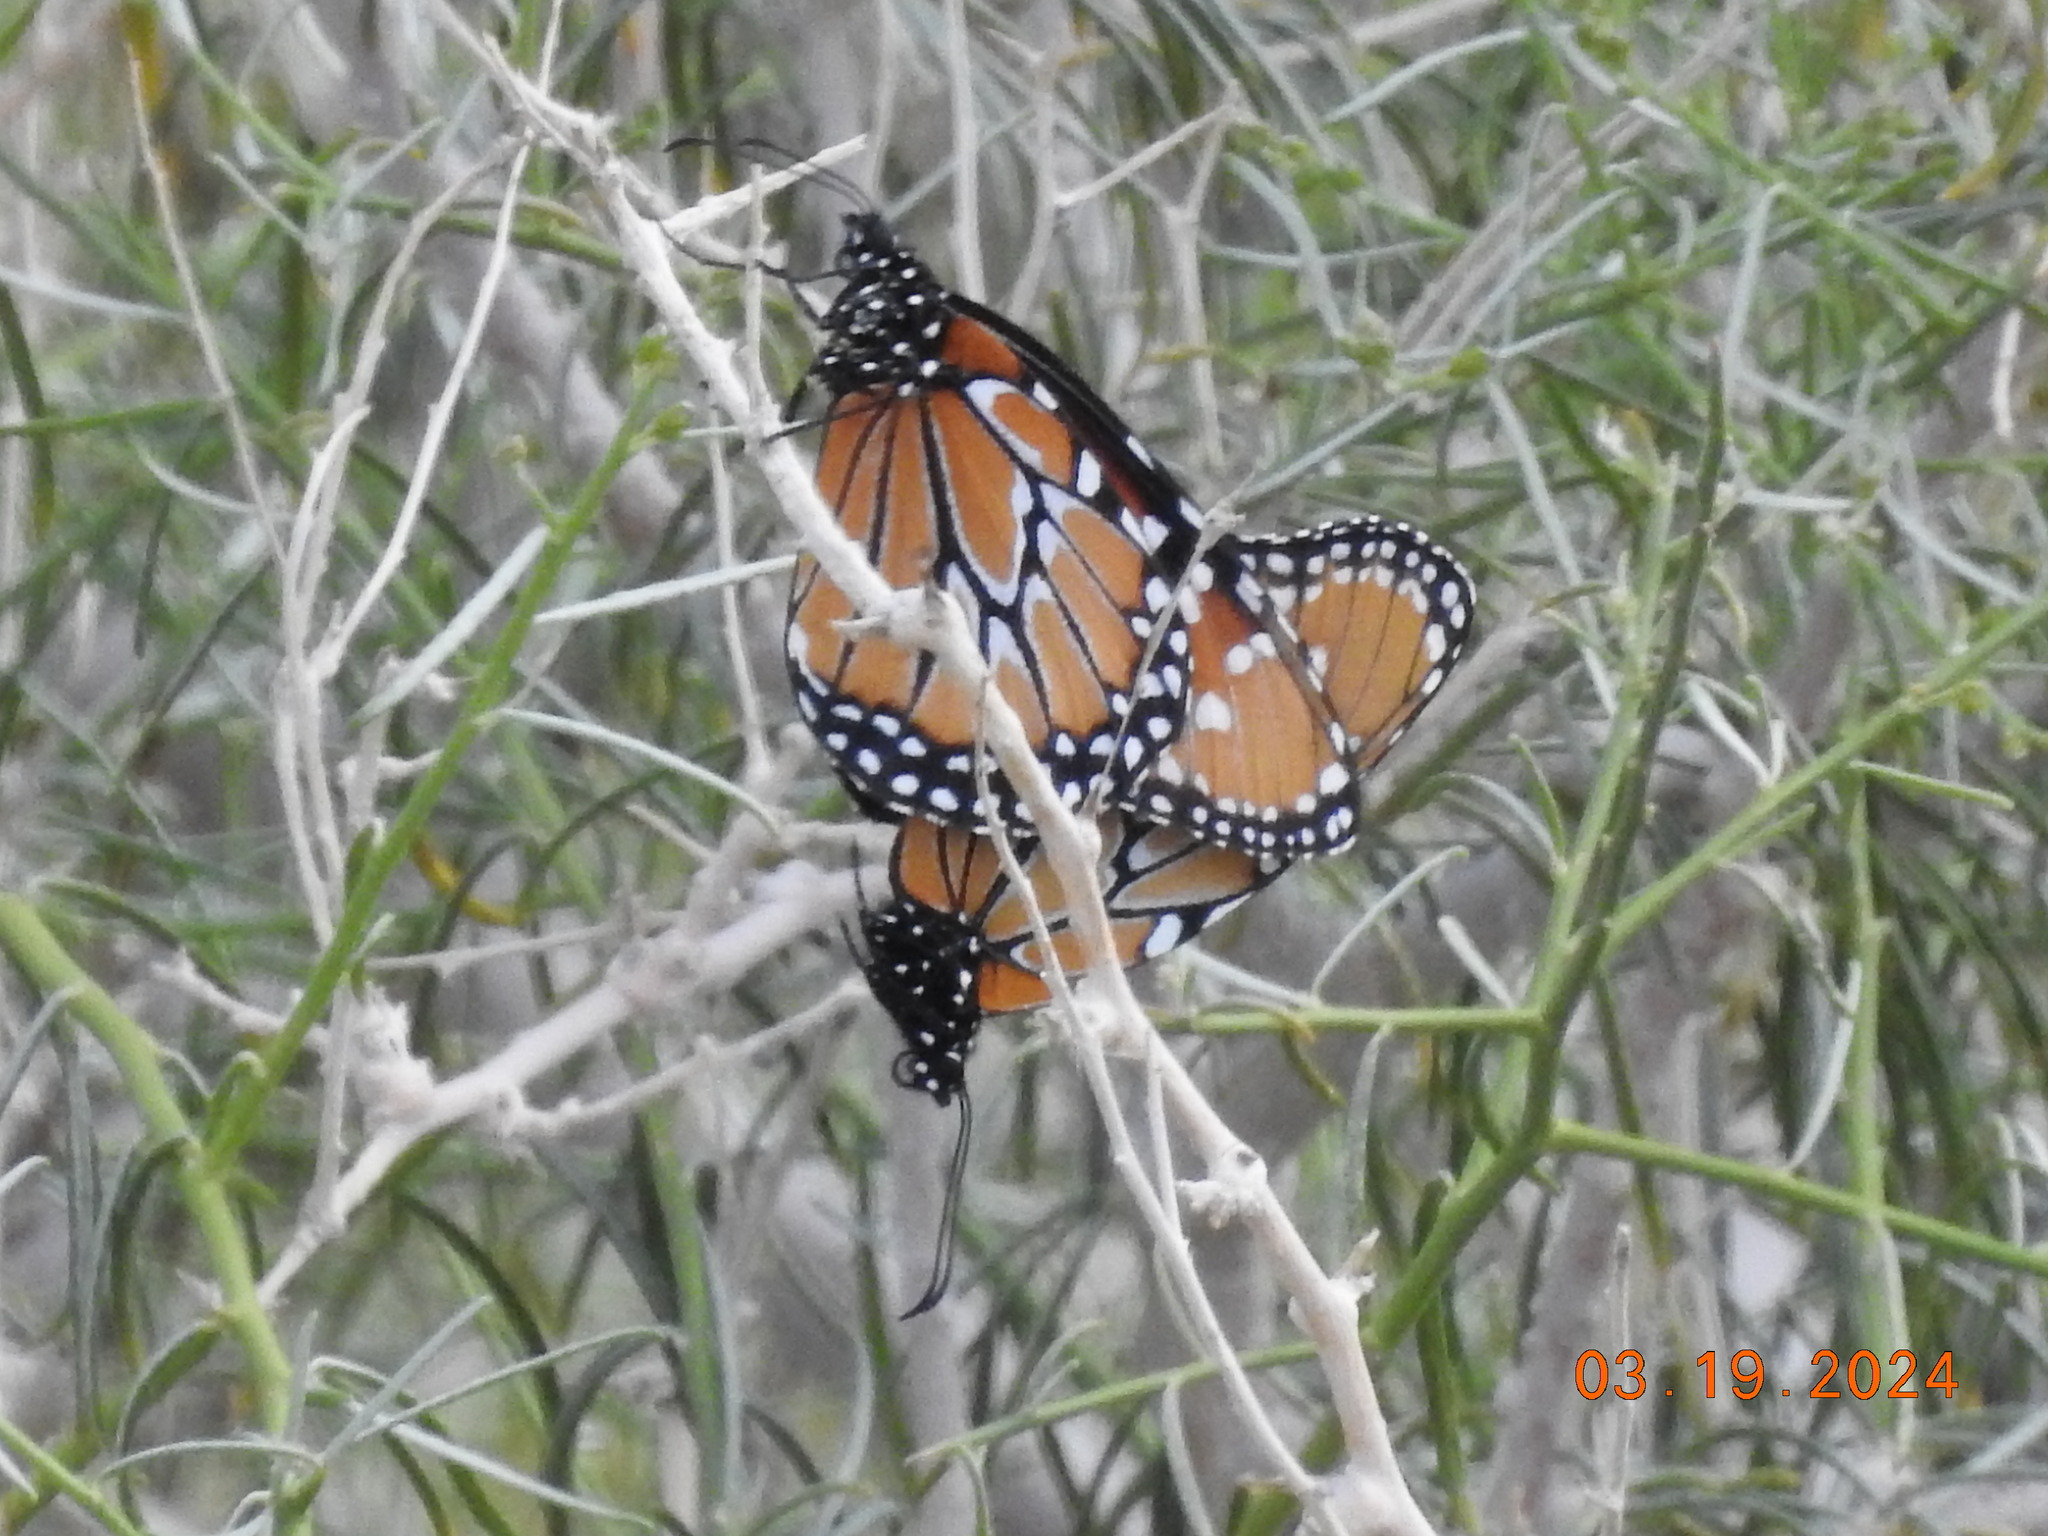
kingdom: Animalia
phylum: Arthropoda
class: Insecta
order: Lepidoptera
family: Nymphalidae
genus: Danaus
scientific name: Danaus gilippus
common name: Queen
